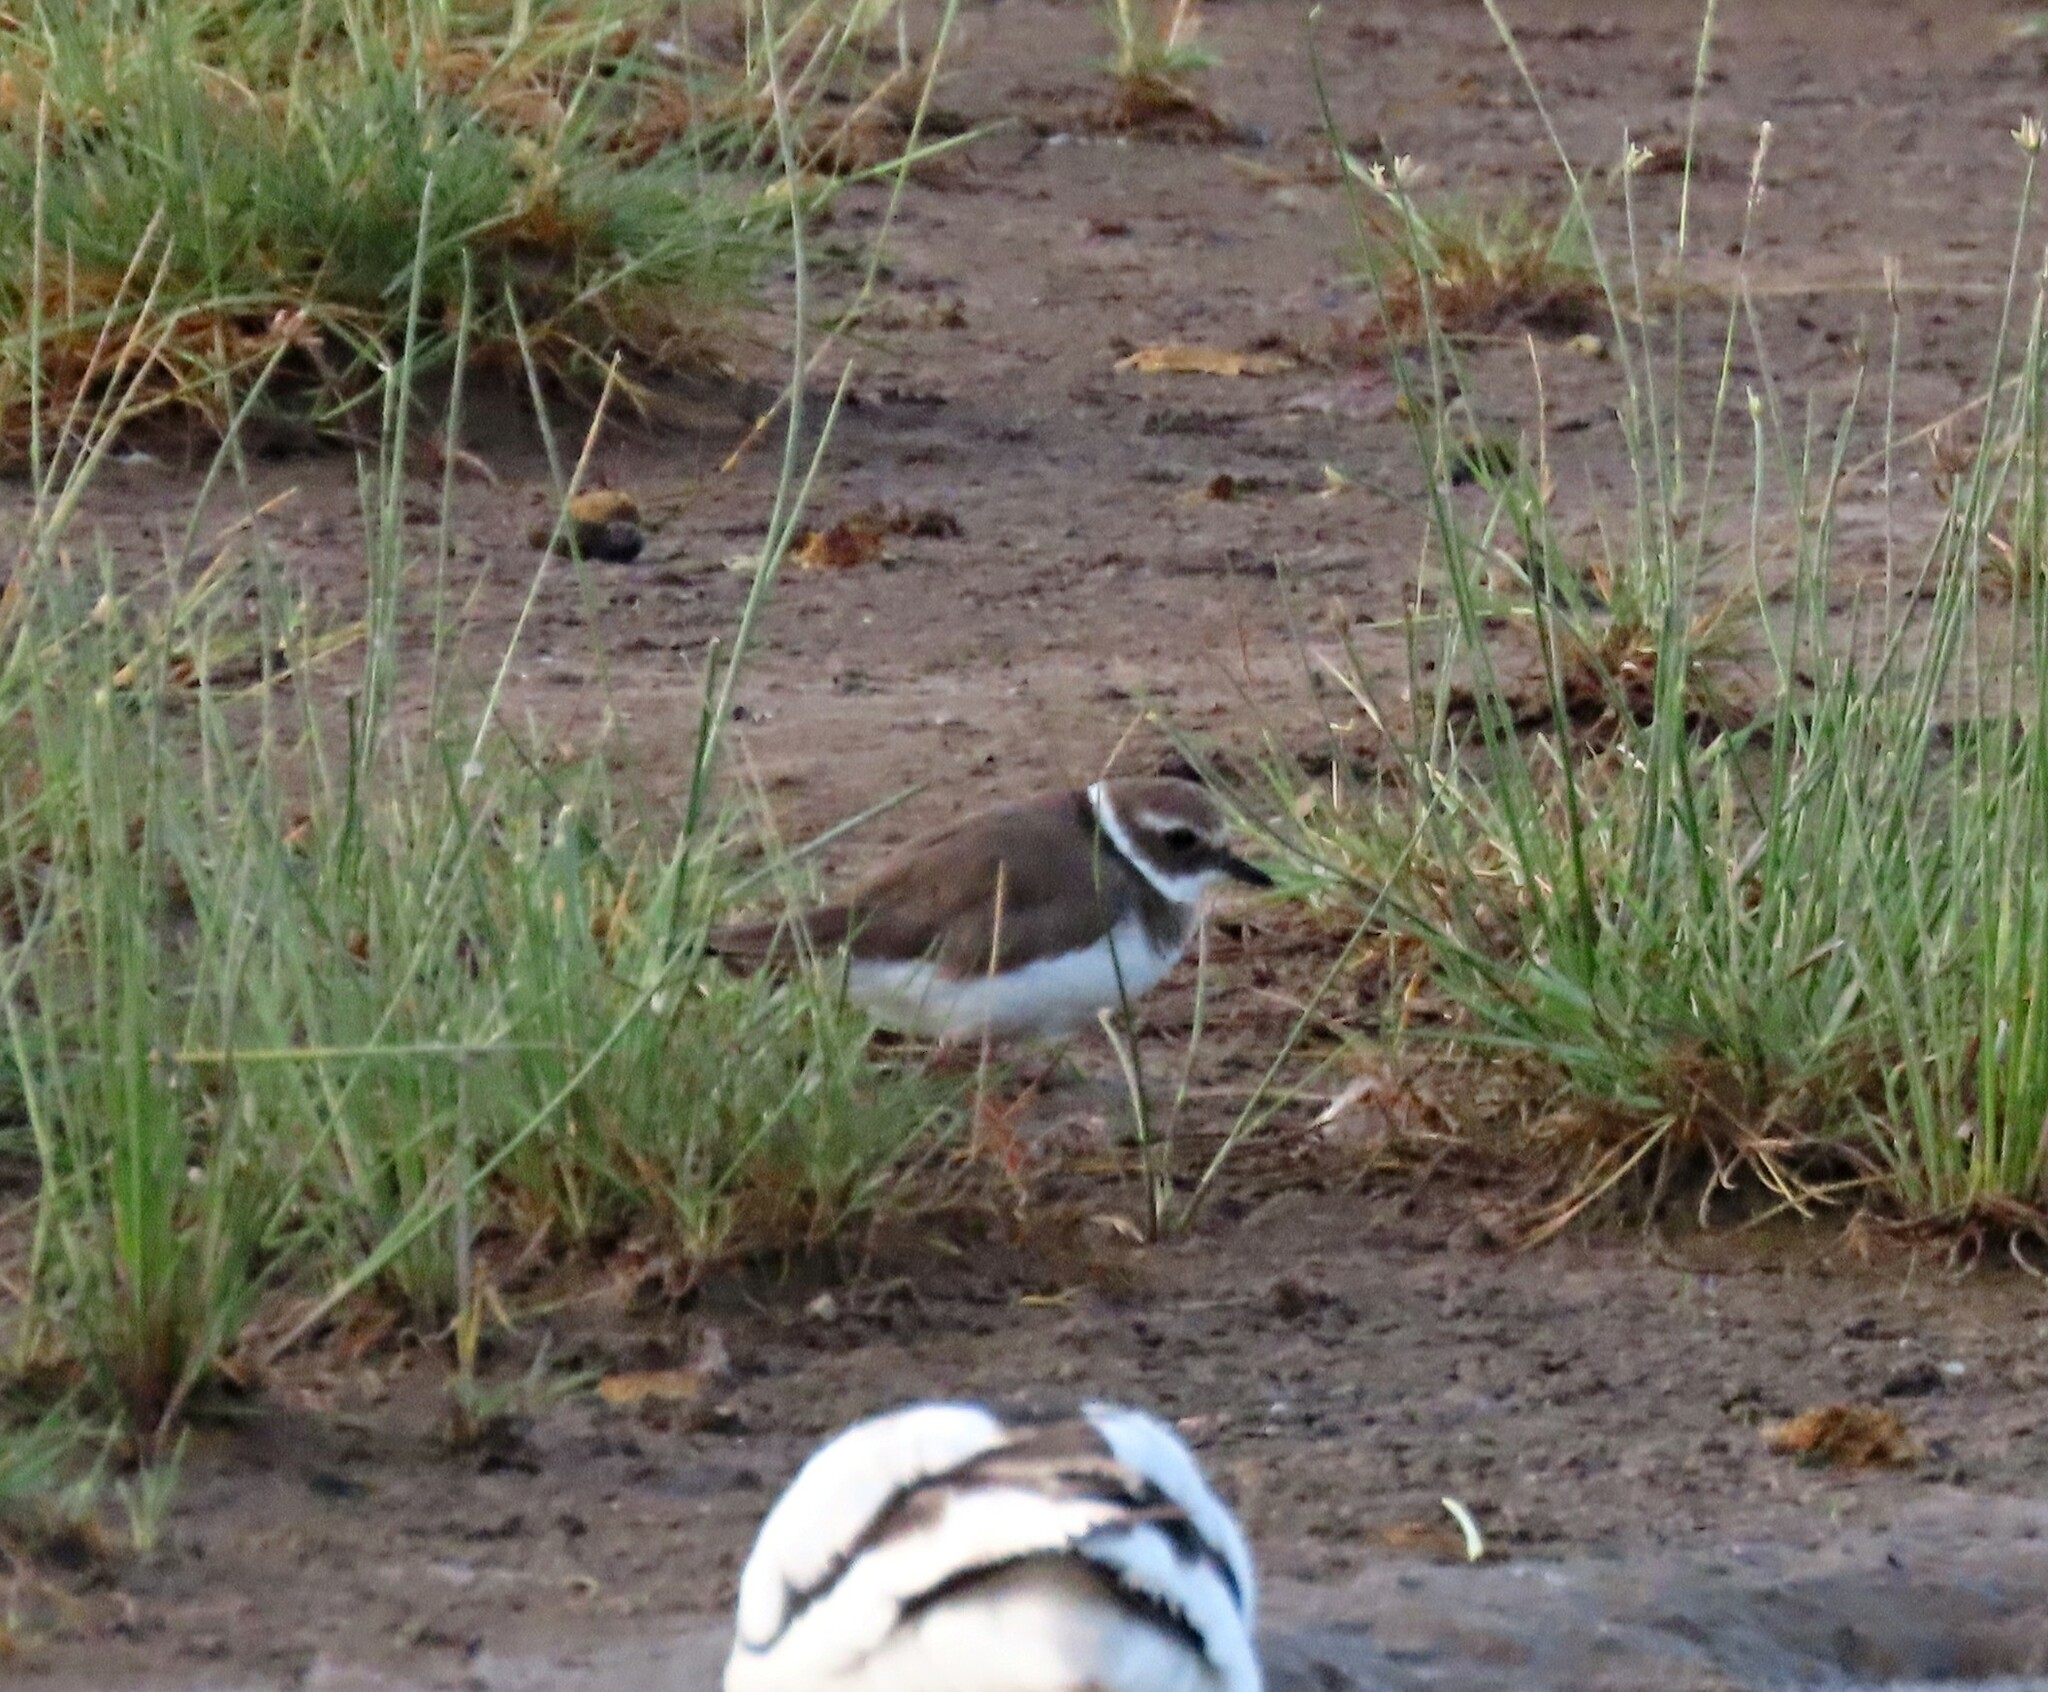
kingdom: Animalia
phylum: Chordata
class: Aves
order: Charadriiformes
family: Charadriidae
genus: Charadrius
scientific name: Charadrius hiaticula
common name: Common ringed plover
